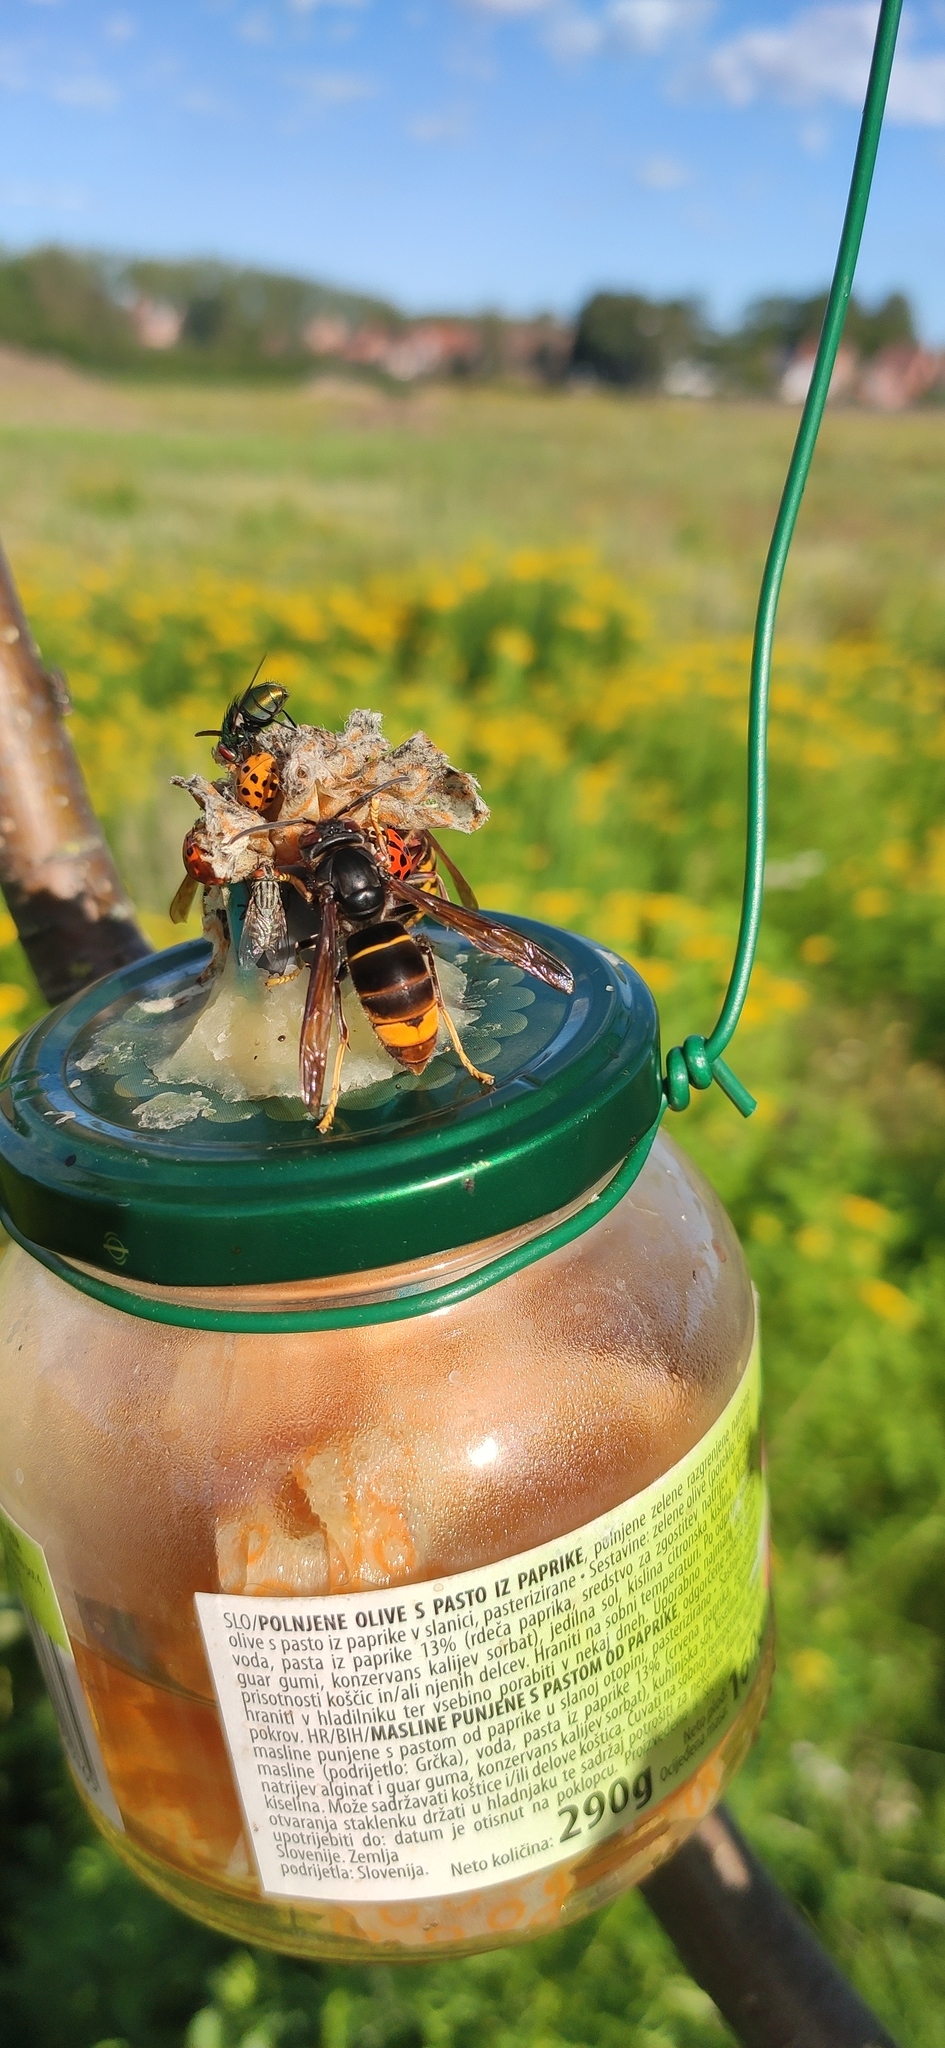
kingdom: Animalia
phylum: Arthropoda
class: Insecta
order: Hymenoptera
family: Vespidae
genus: Vespa
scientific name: Vespa velutina
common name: Asian hornet
